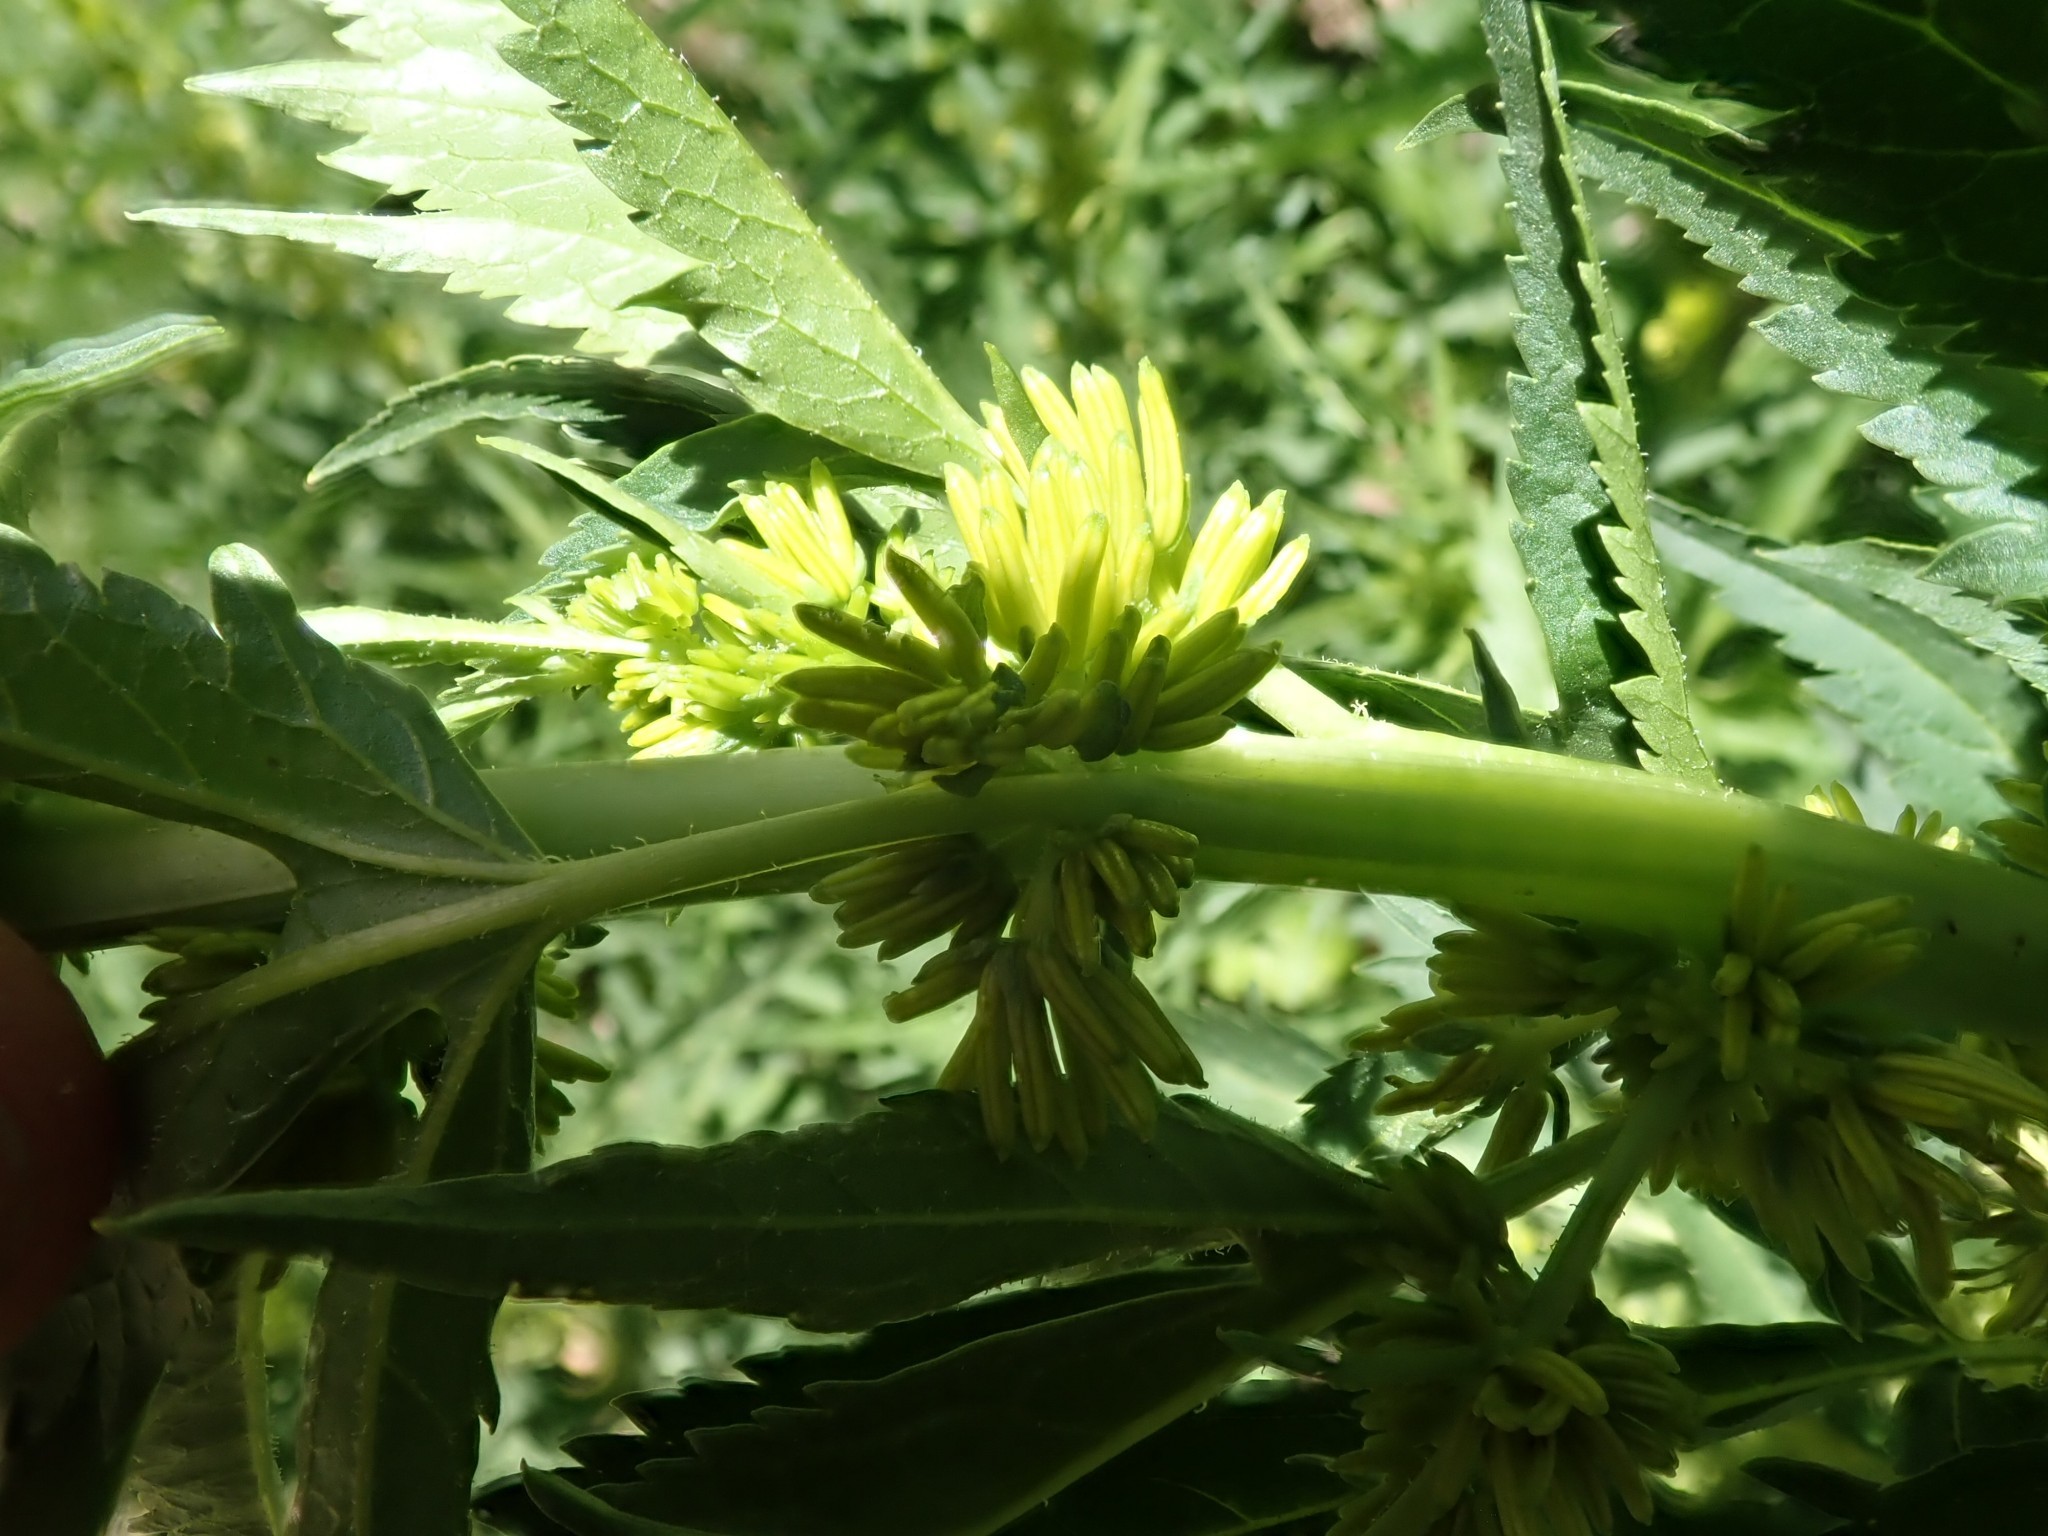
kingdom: Plantae
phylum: Tracheophyta
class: Magnoliopsida
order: Cucurbitales
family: Datiscaceae
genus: Datisca
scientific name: Datisca glomerata
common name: Durango-root
